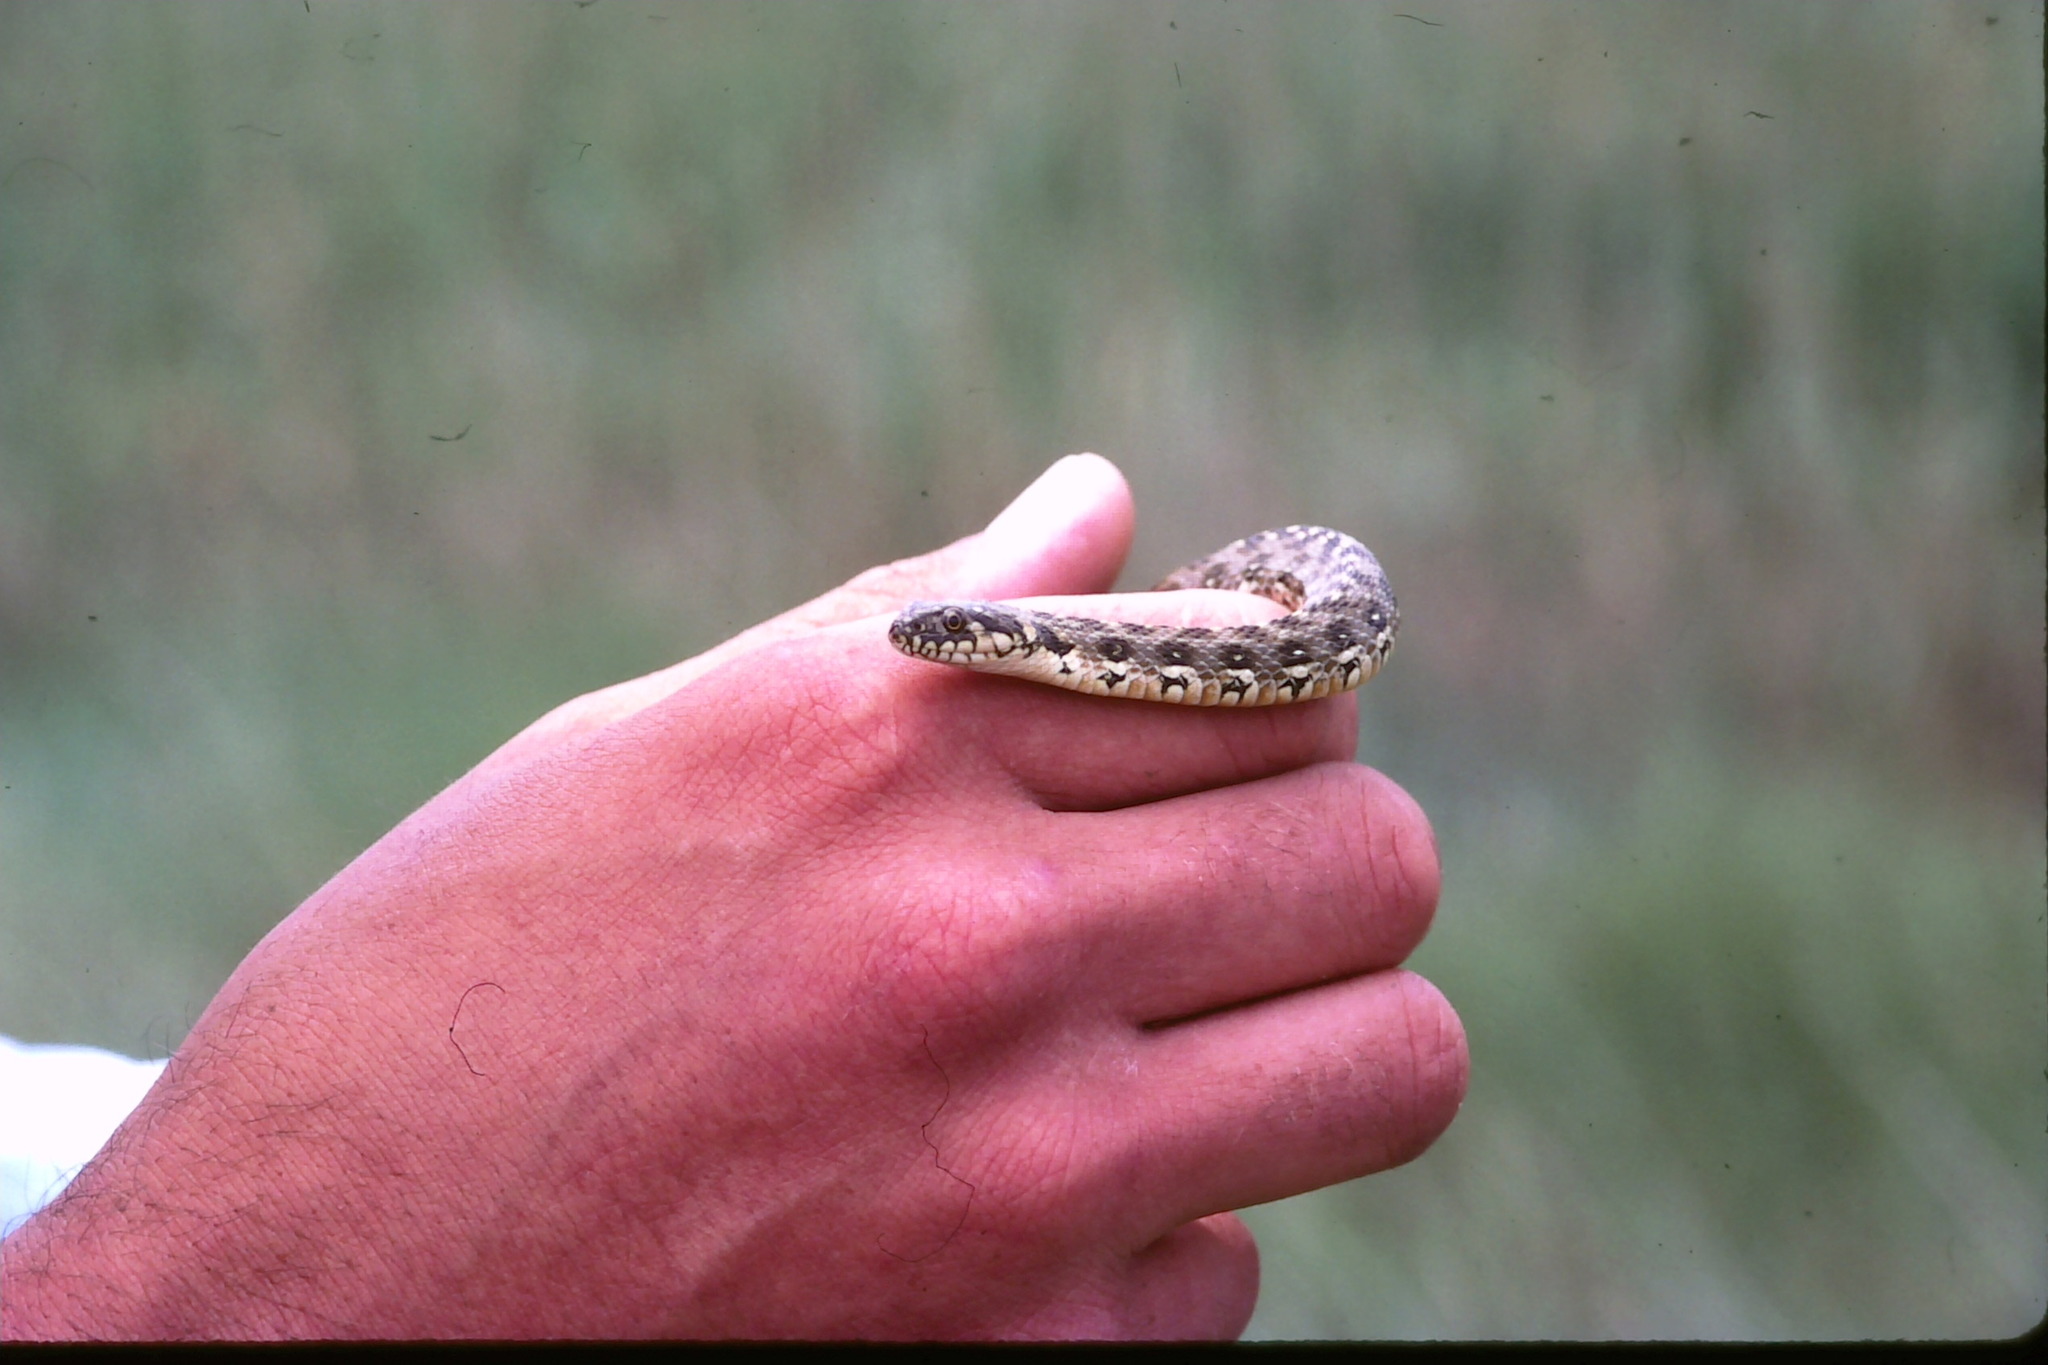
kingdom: Animalia
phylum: Chordata
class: Squamata
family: Colubridae
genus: Natrix
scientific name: Natrix maura
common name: Viperine water snake
